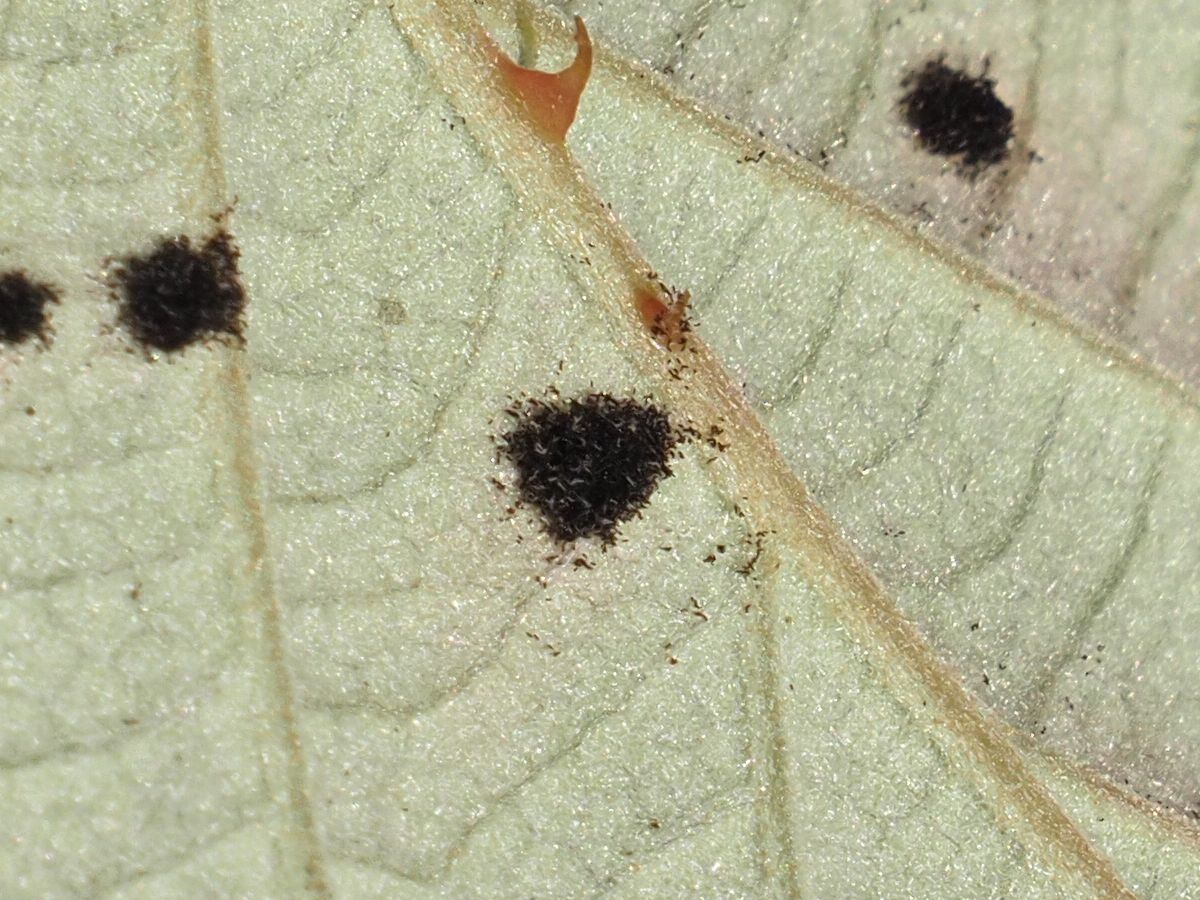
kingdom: Fungi
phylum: Basidiomycota
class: Pucciniomycetes
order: Pucciniales
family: Phragmidiaceae
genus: Phragmidium
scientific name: Phragmidium violaceum
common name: Violet bramble rust
